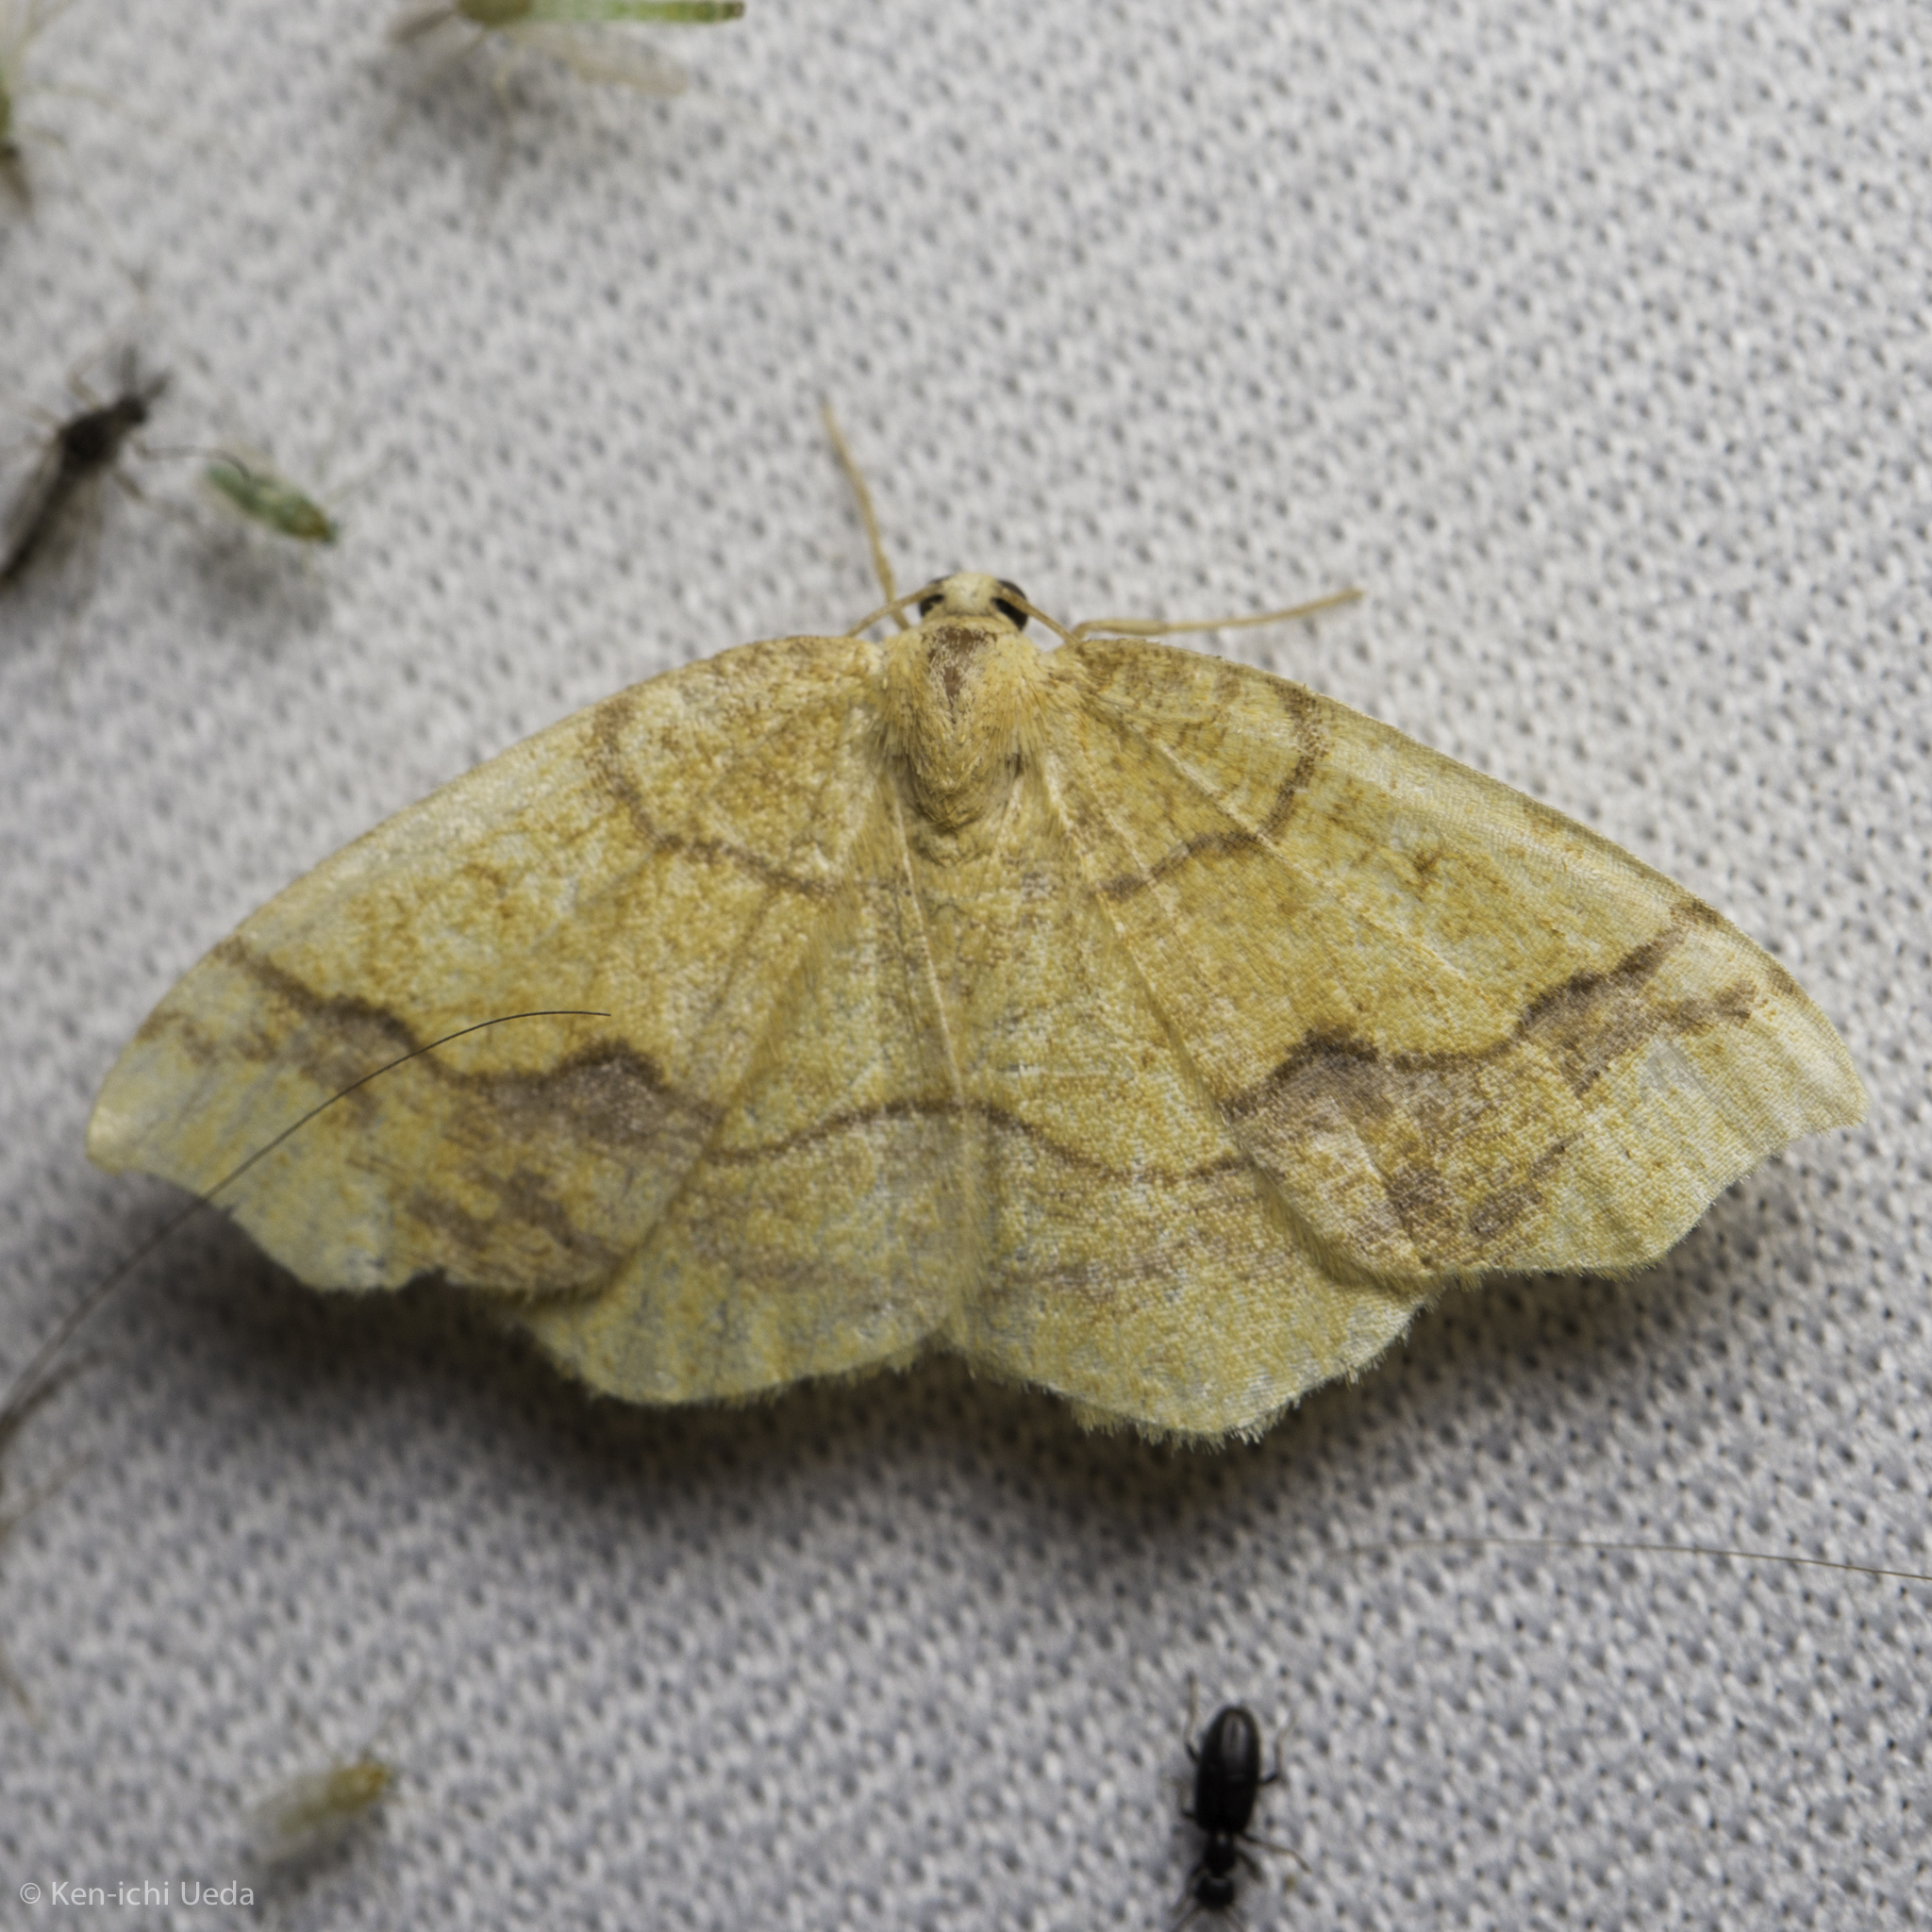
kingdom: Animalia
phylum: Arthropoda
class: Insecta
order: Lepidoptera
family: Geometridae
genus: Nematocampa
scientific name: Nematocampa brehmeata
